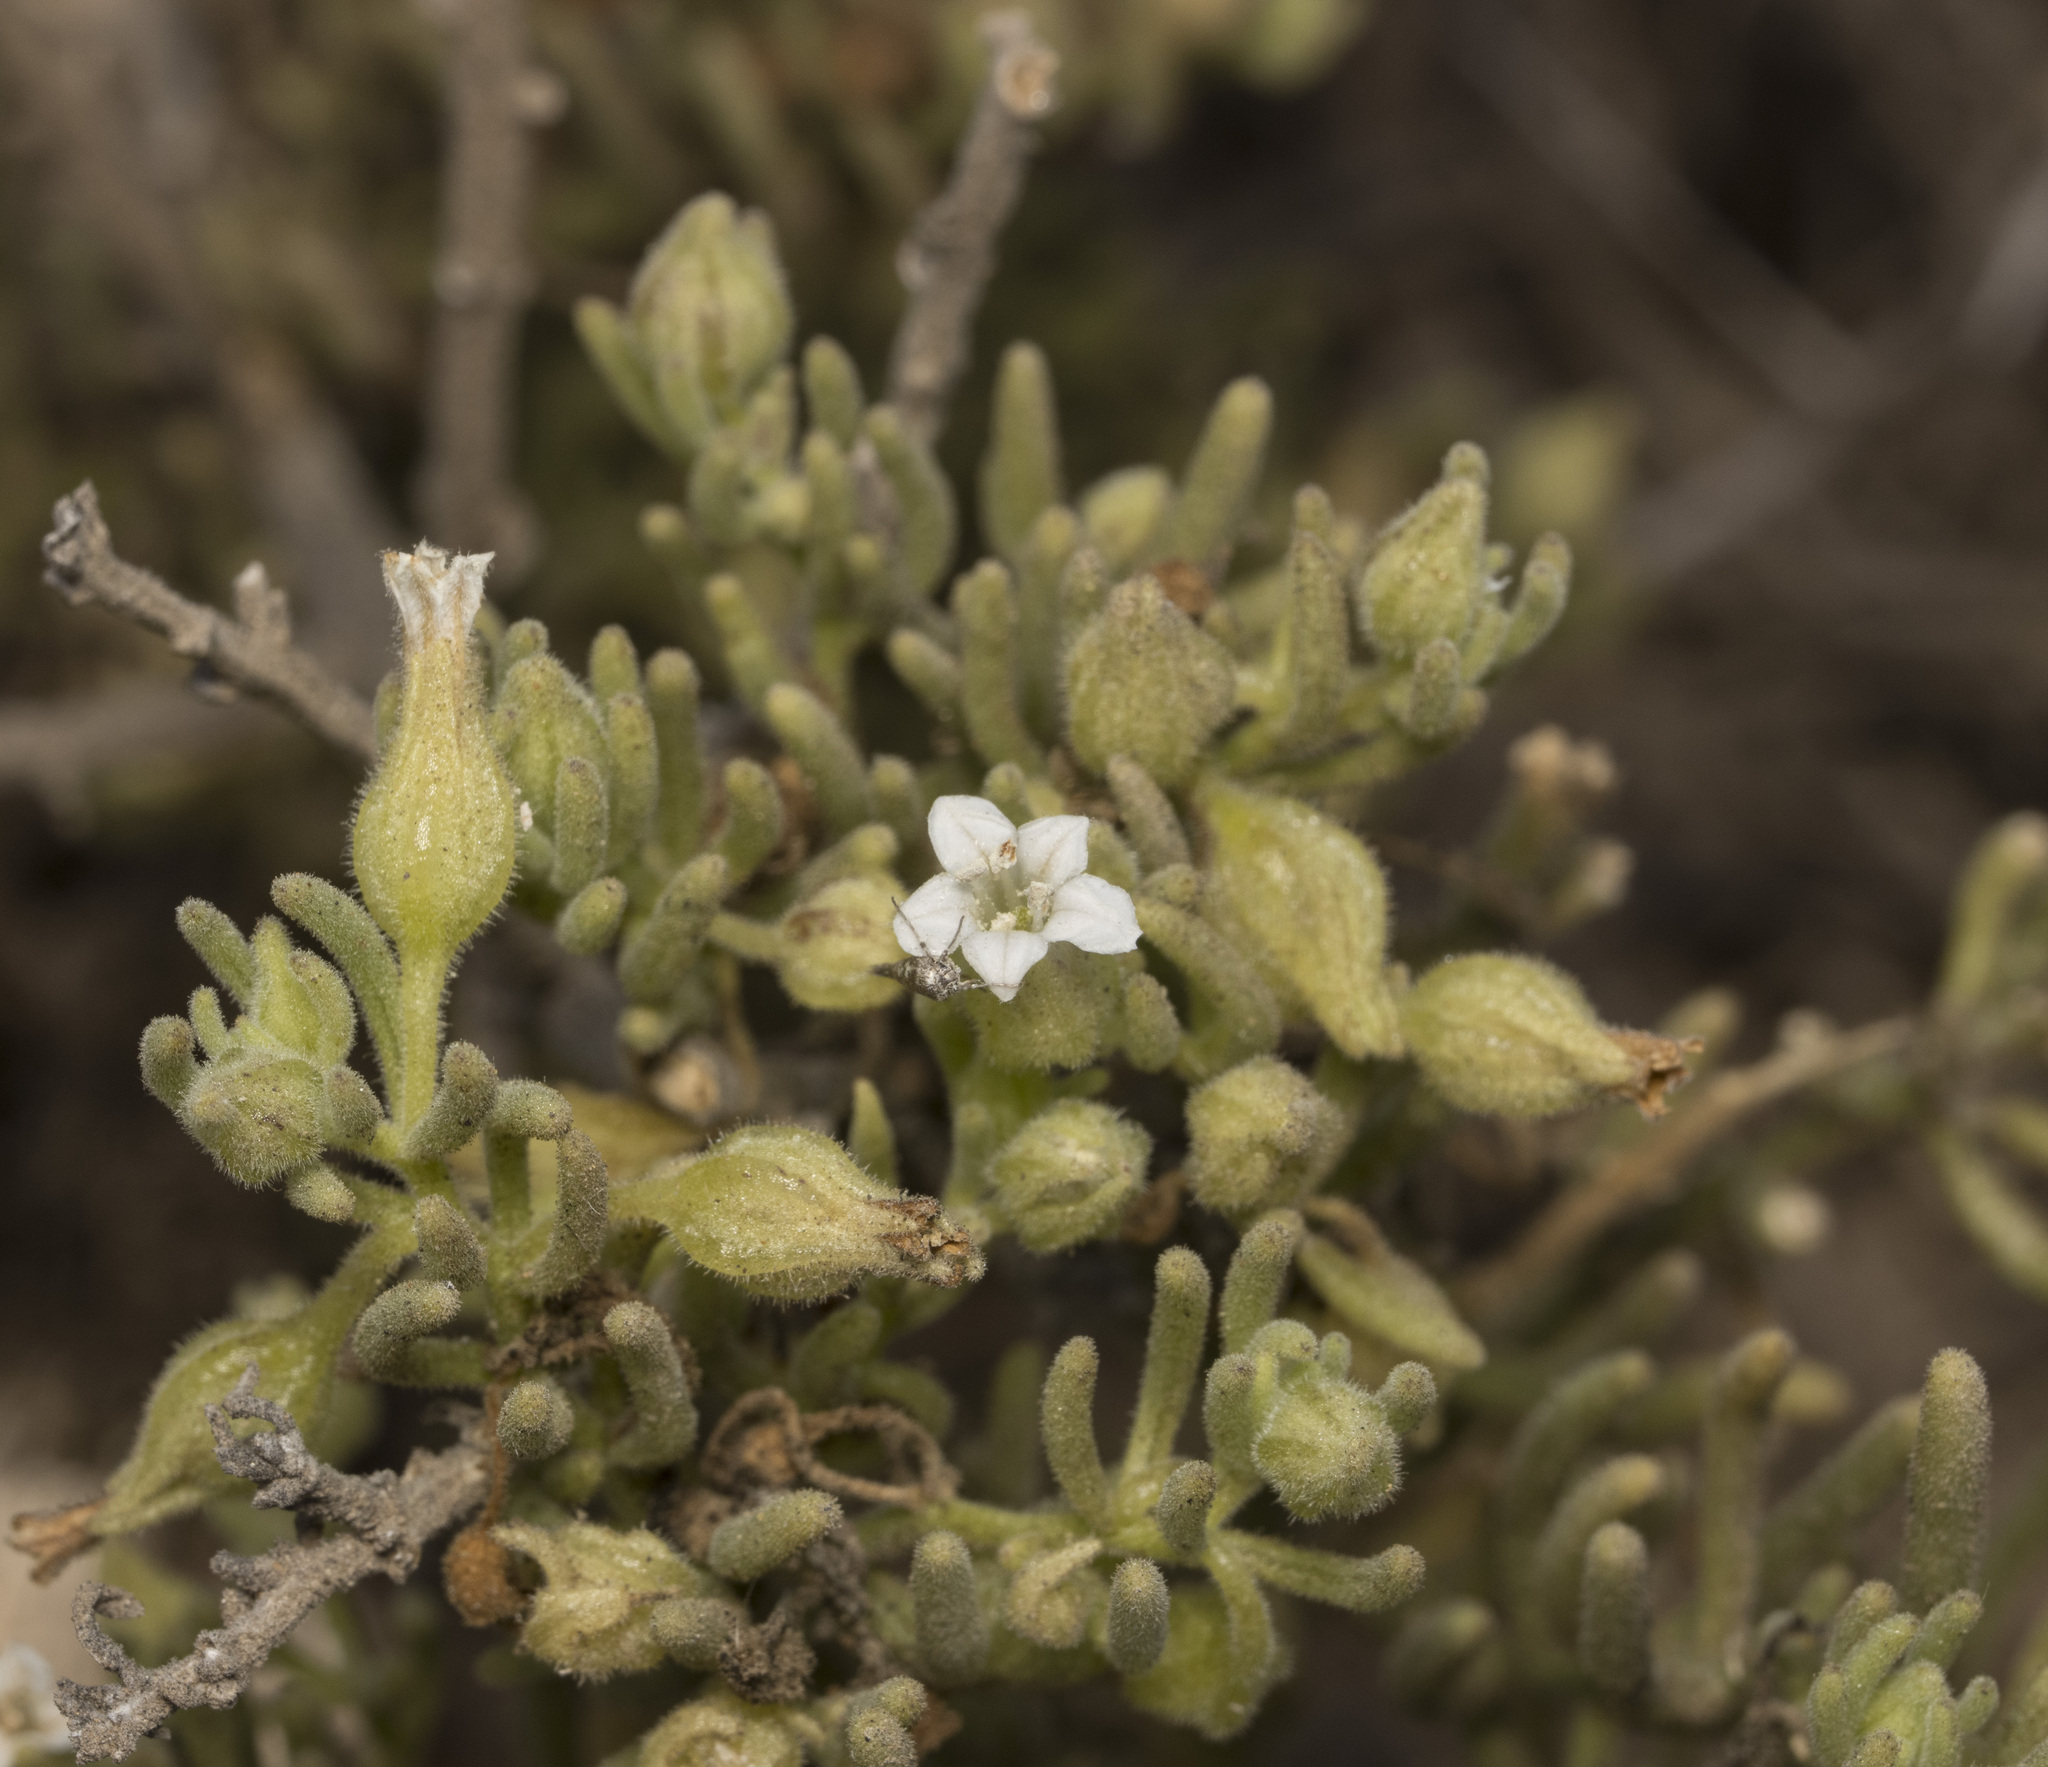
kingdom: Plantae
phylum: Tracheophyta
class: Magnoliopsida
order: Solanales
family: Solanaceae
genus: Nolana
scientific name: Nolana werdermannii
